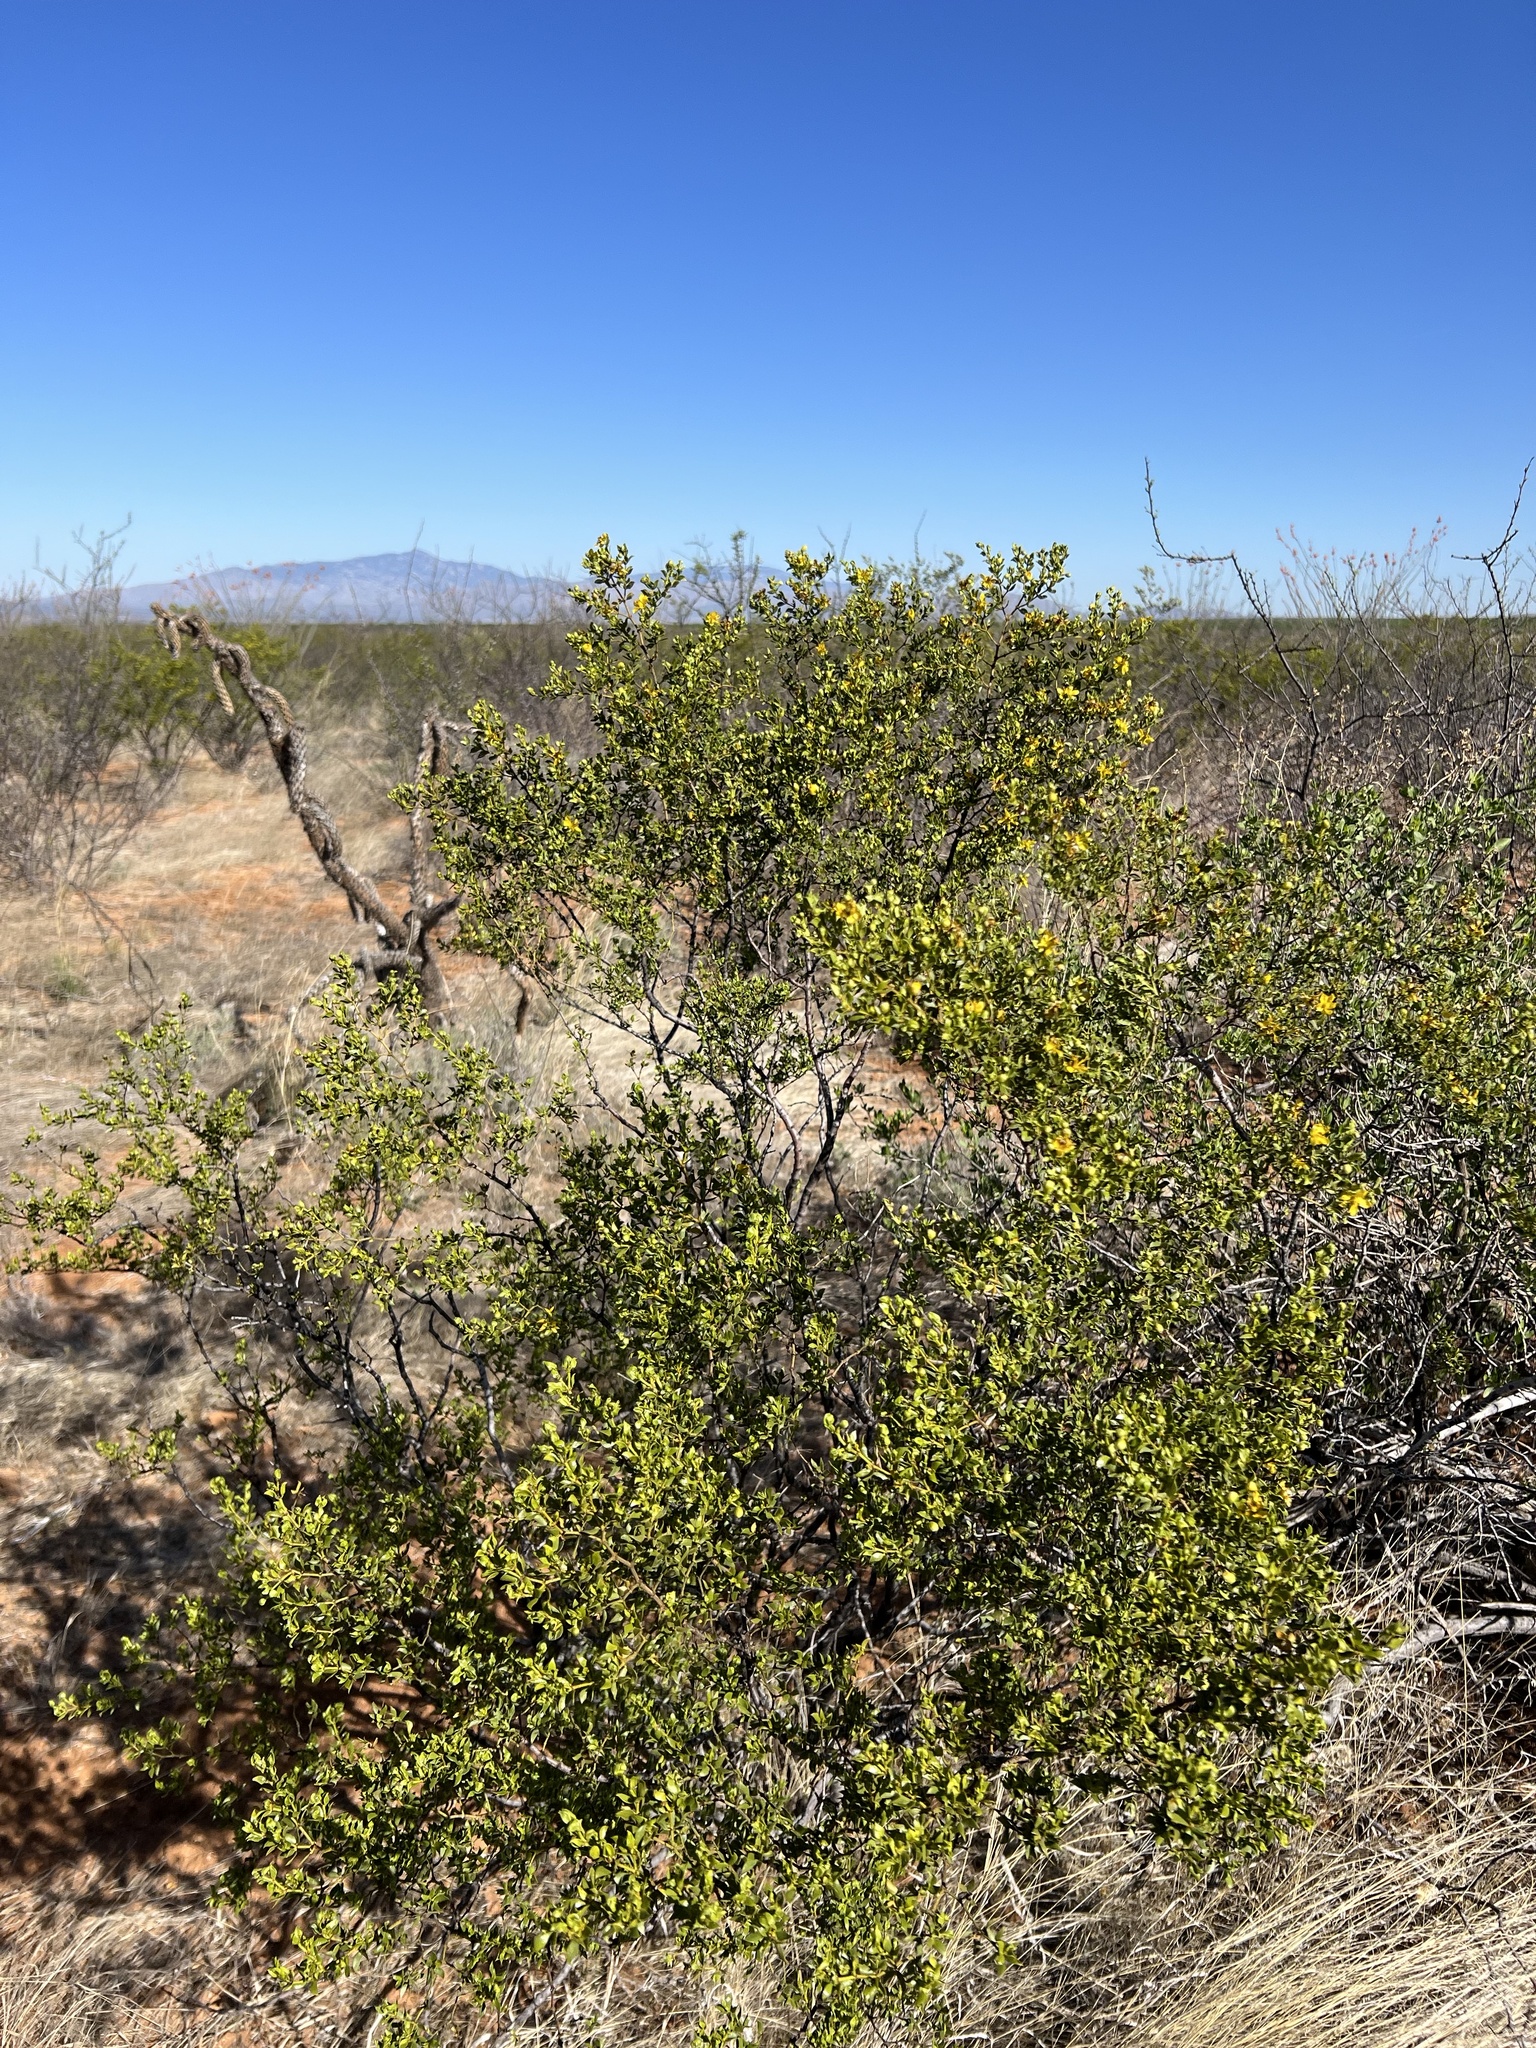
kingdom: Plantae
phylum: Tracheophyta
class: Magnoliopsida
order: Zygophyllales
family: Zygophyllaceae
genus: Larrea
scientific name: Larrea tridentata
